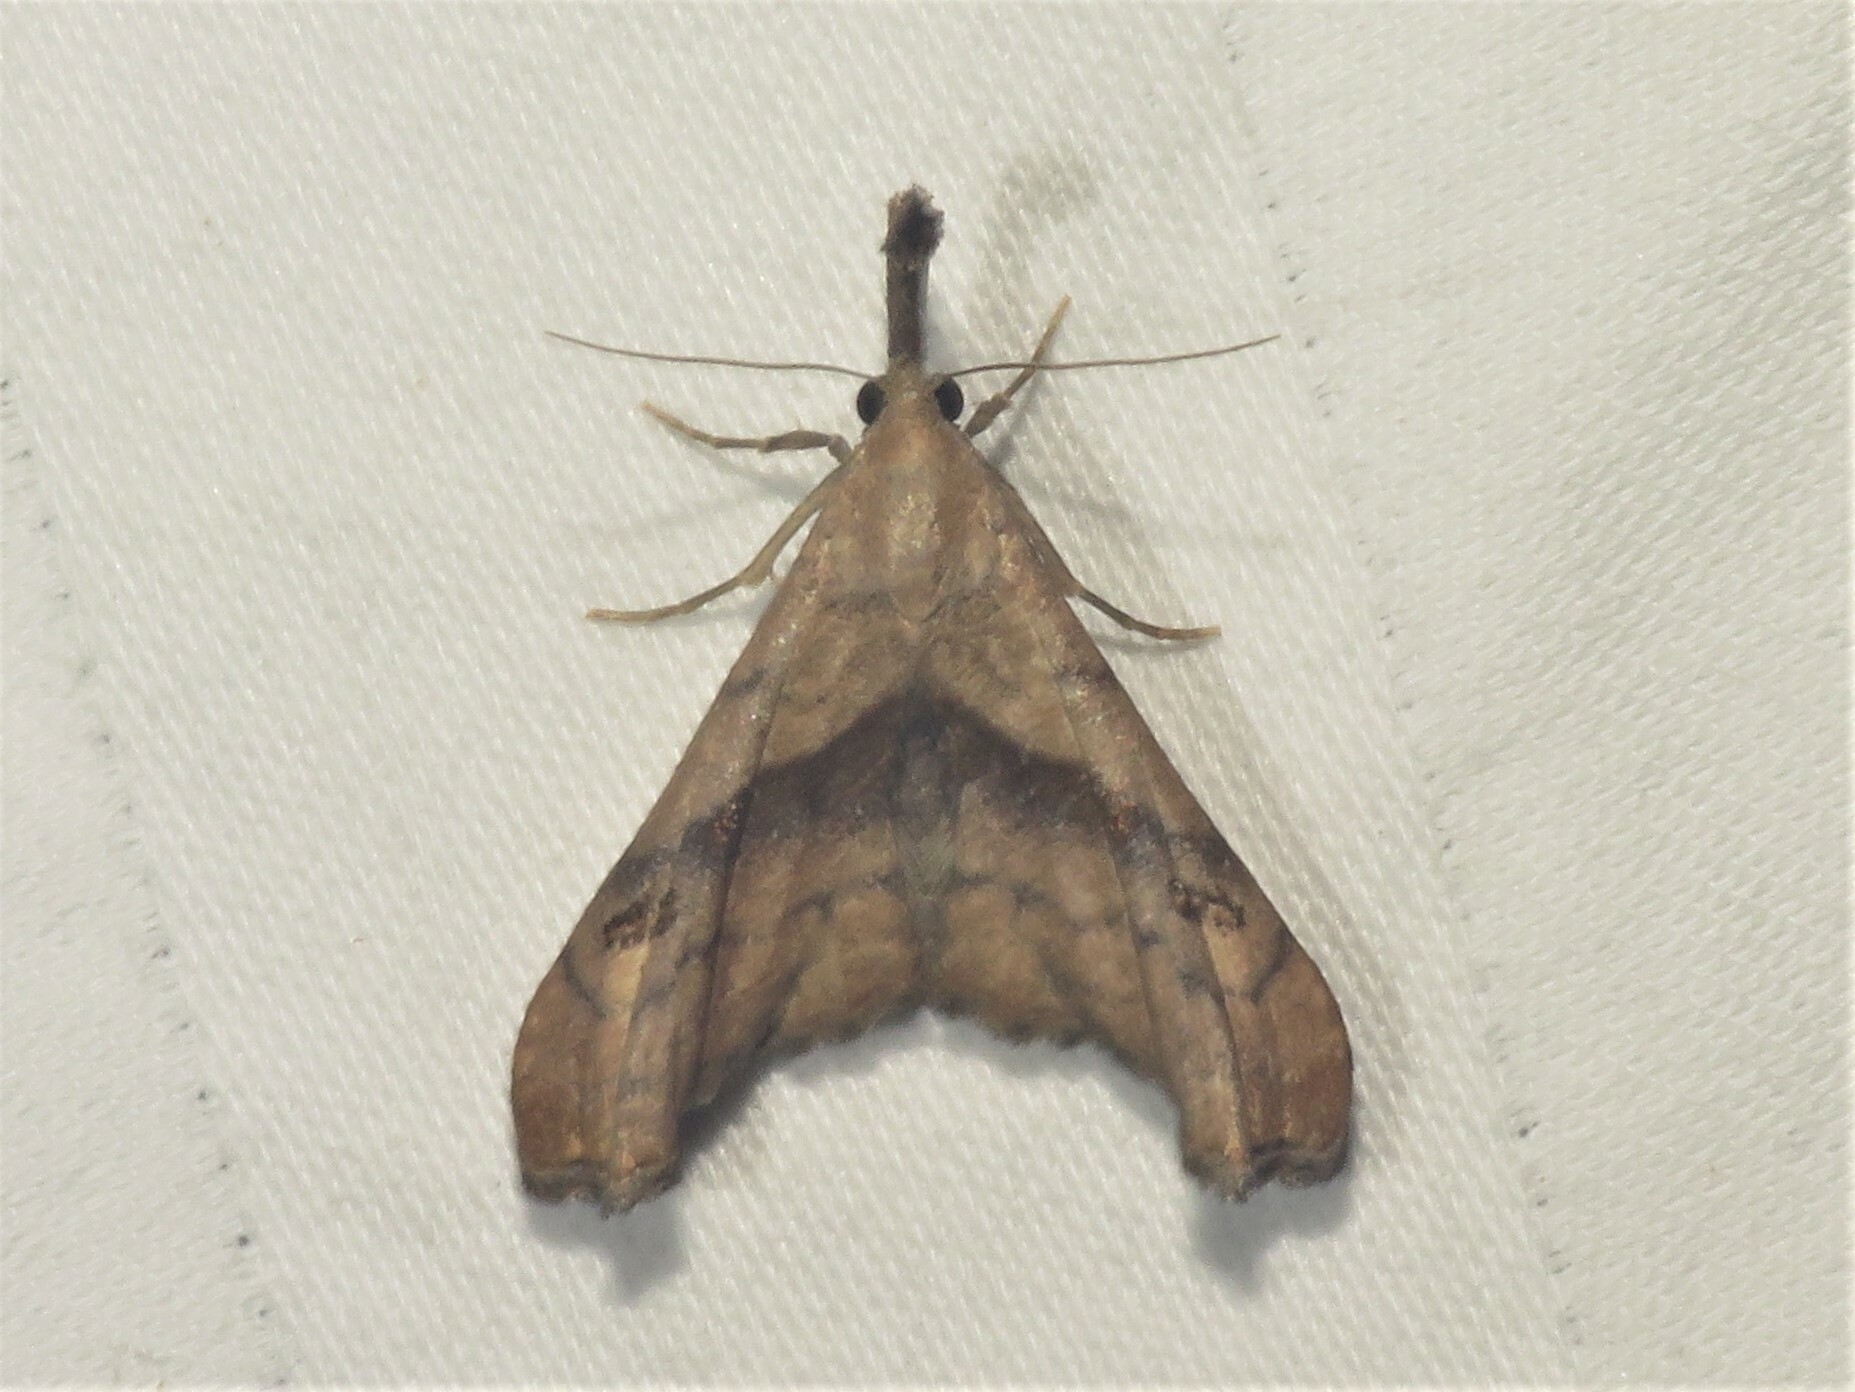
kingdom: Animalia
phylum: Arthropoda
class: Insecta
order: Lepidoptera
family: Erebidae
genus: Palthis
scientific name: Palthis angulalis
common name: Dark-spotted palthis moth
